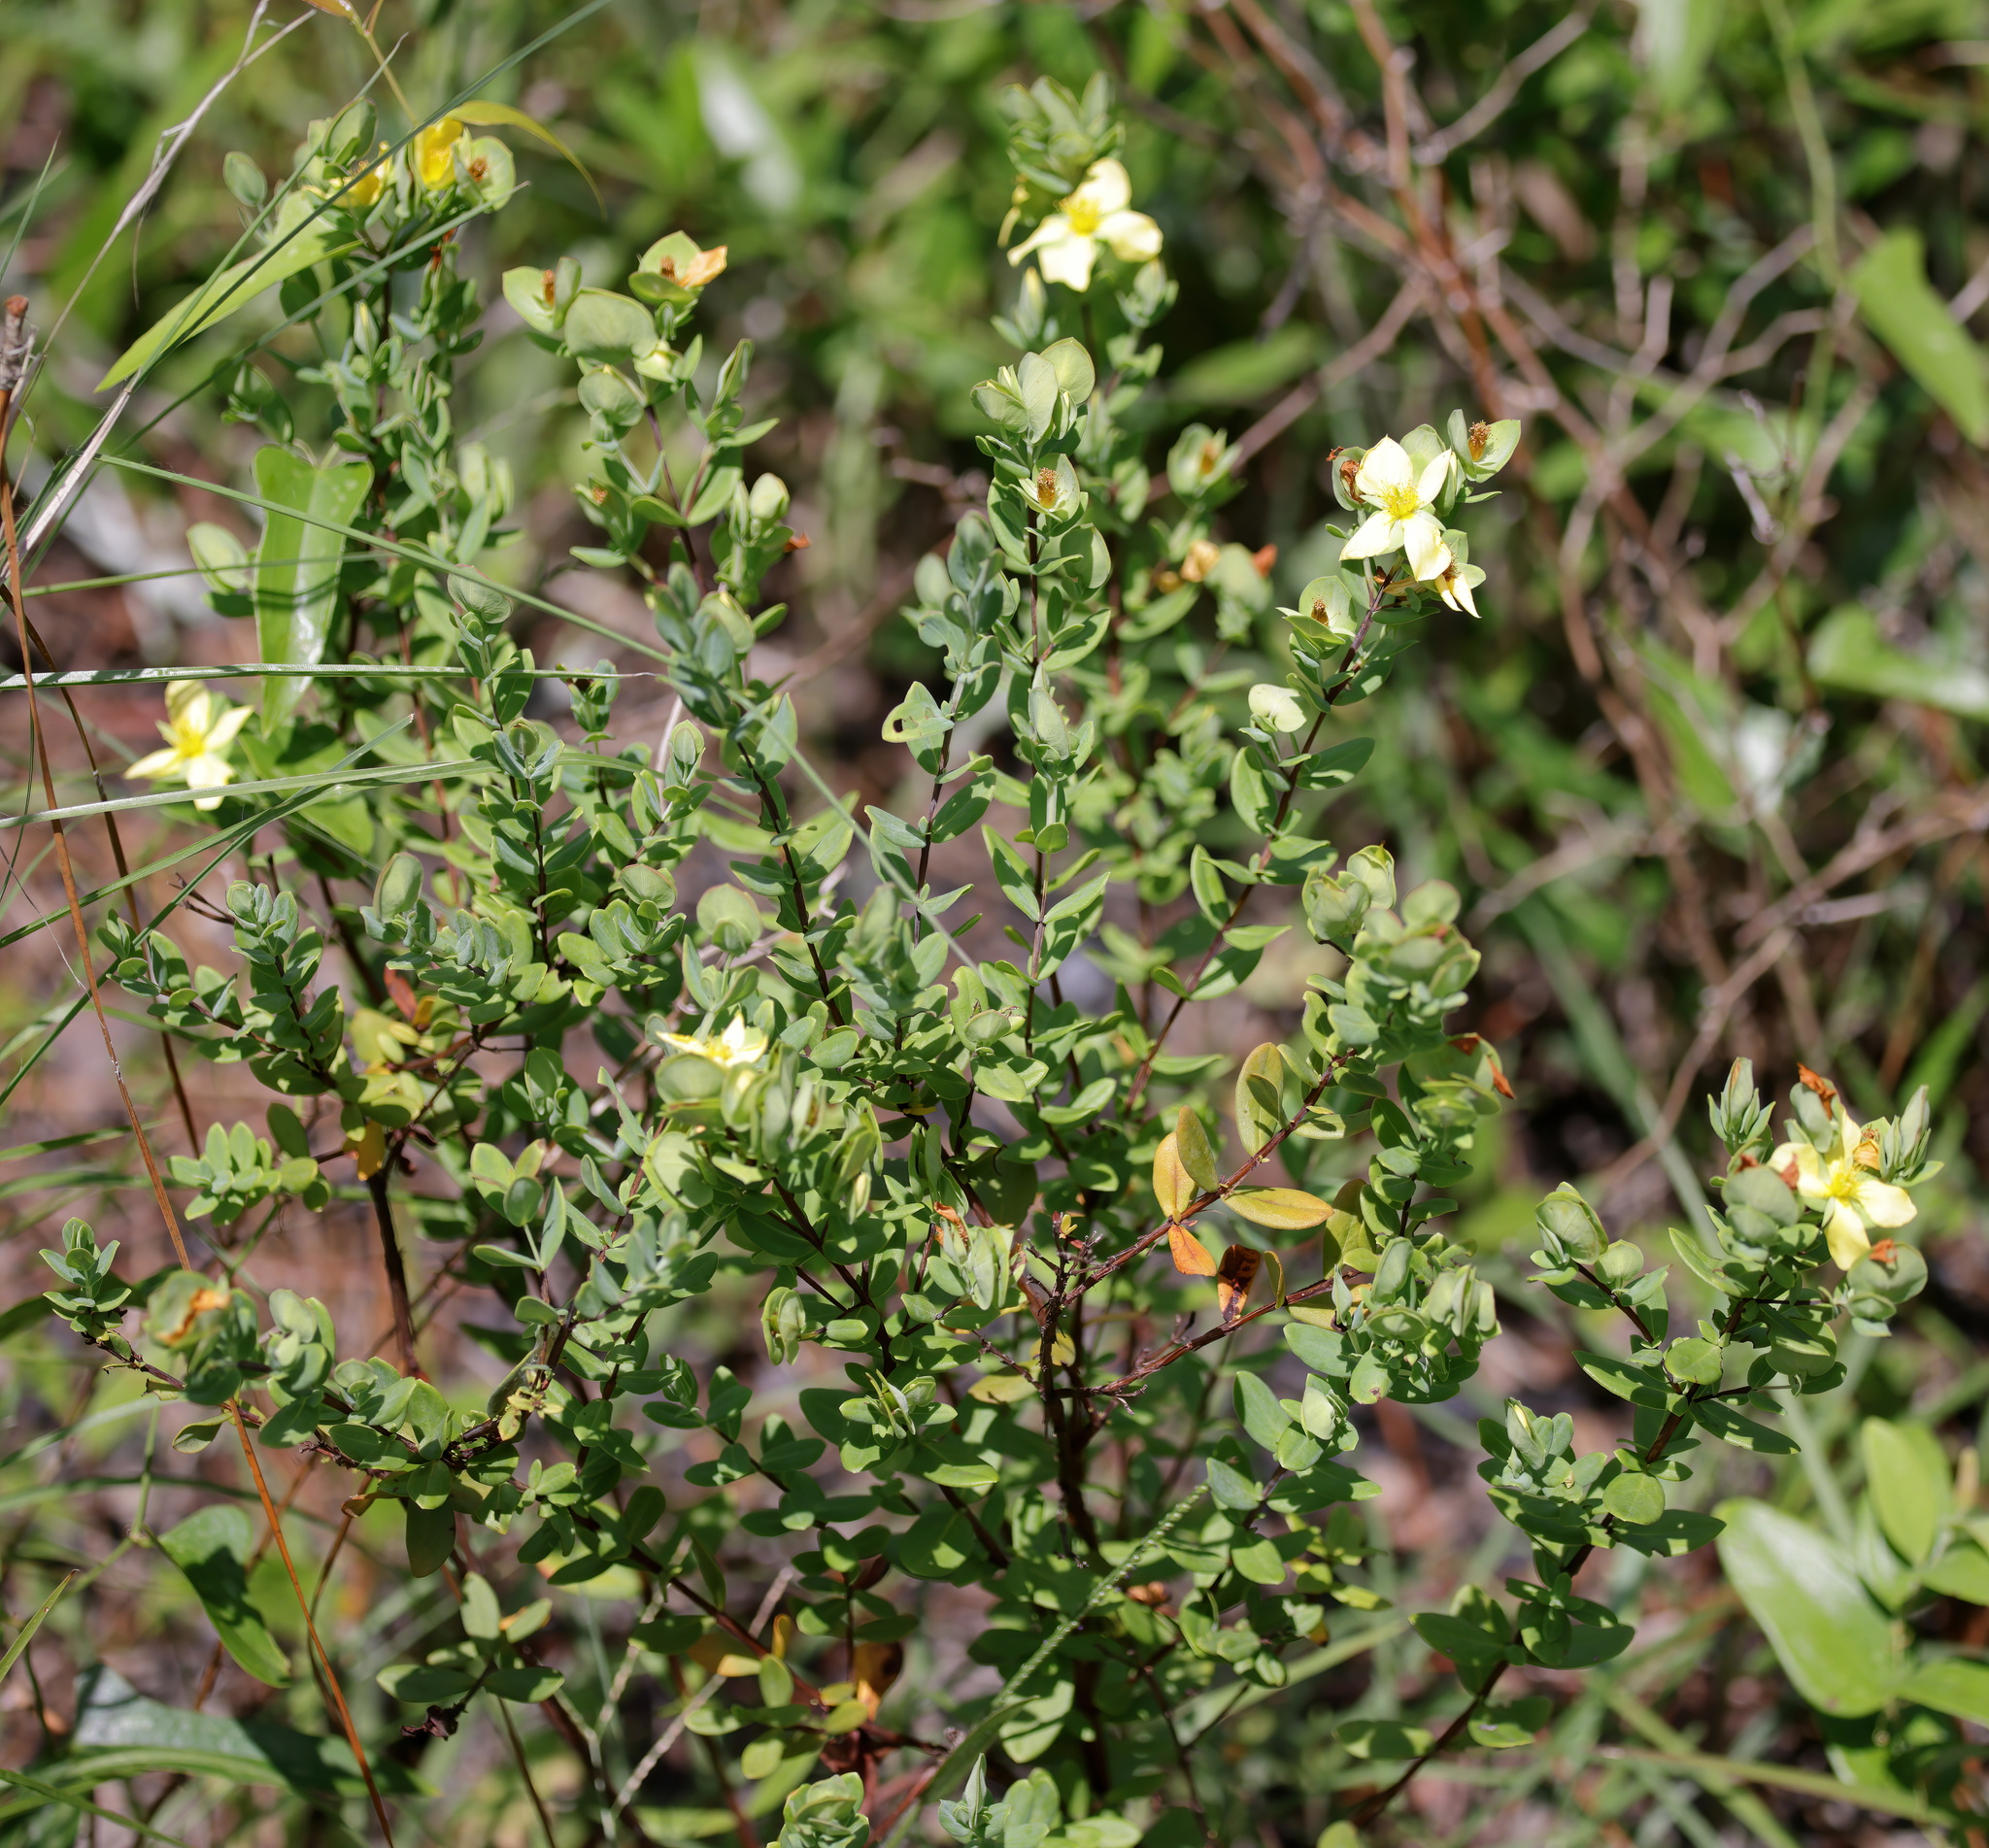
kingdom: Plantae
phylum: Tracheophyta
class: Magnoliopsida
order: Malpighiales
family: Hypericaceae
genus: Hypericum
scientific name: Hypericum crux-andreae
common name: St.-peter's-wort
